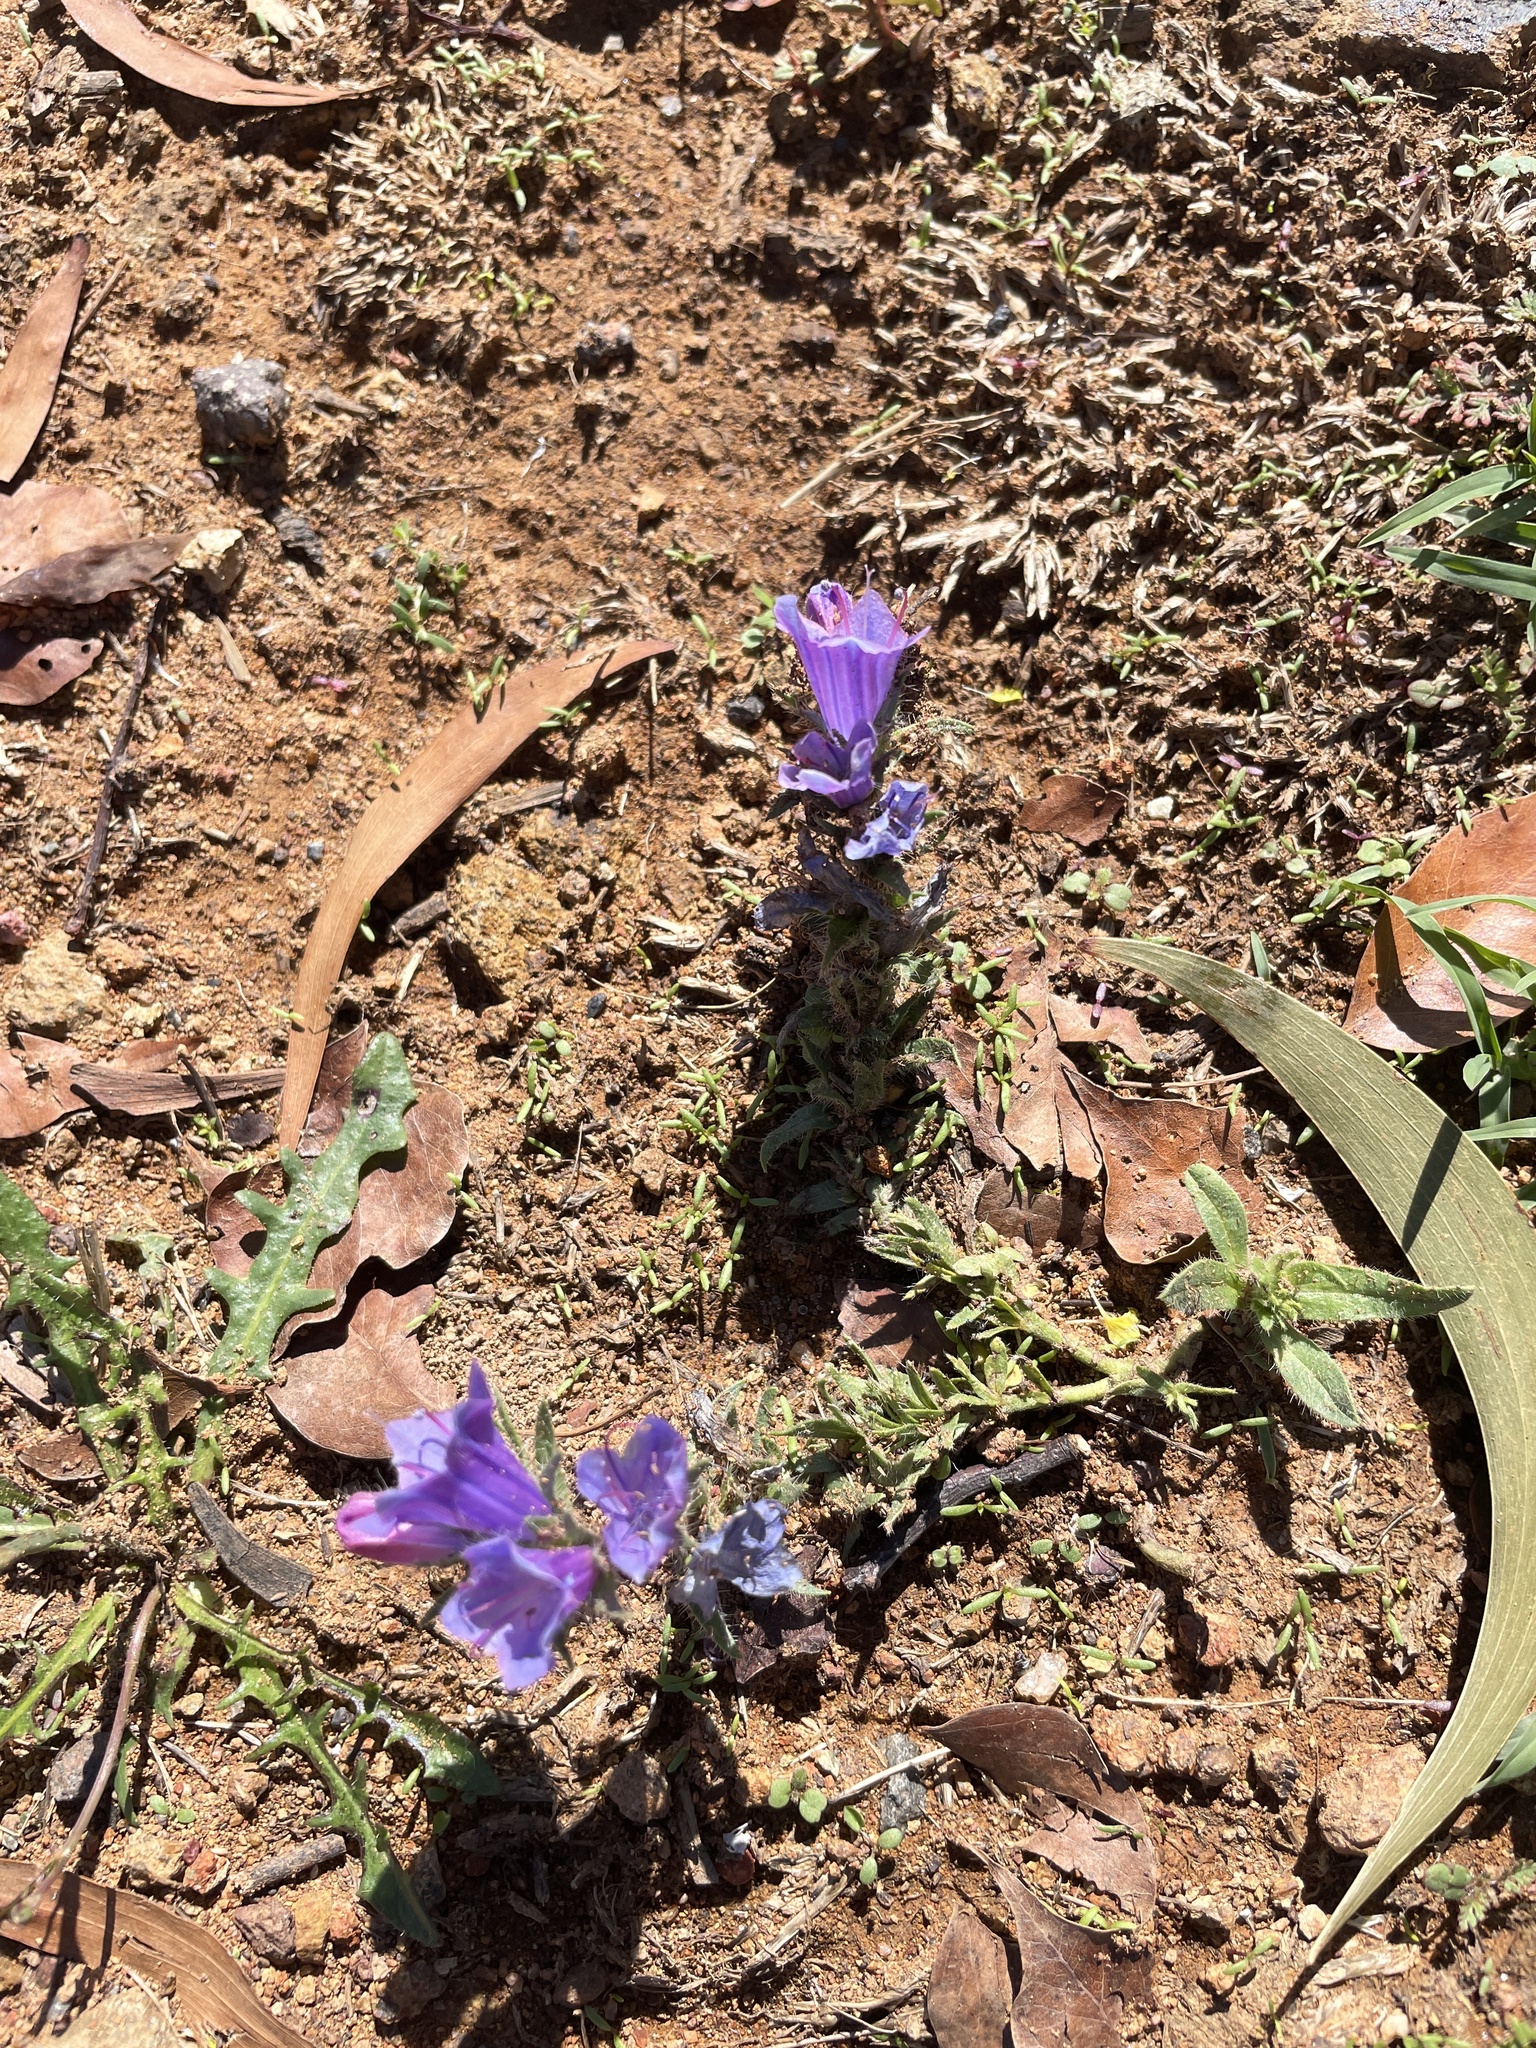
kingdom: Plantae
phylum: Tracheophyta
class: Magnoliopsida
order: Boraginales
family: Boraginaceae
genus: Echium
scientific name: Echium plantagineum
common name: Purple viper's-bugloss
